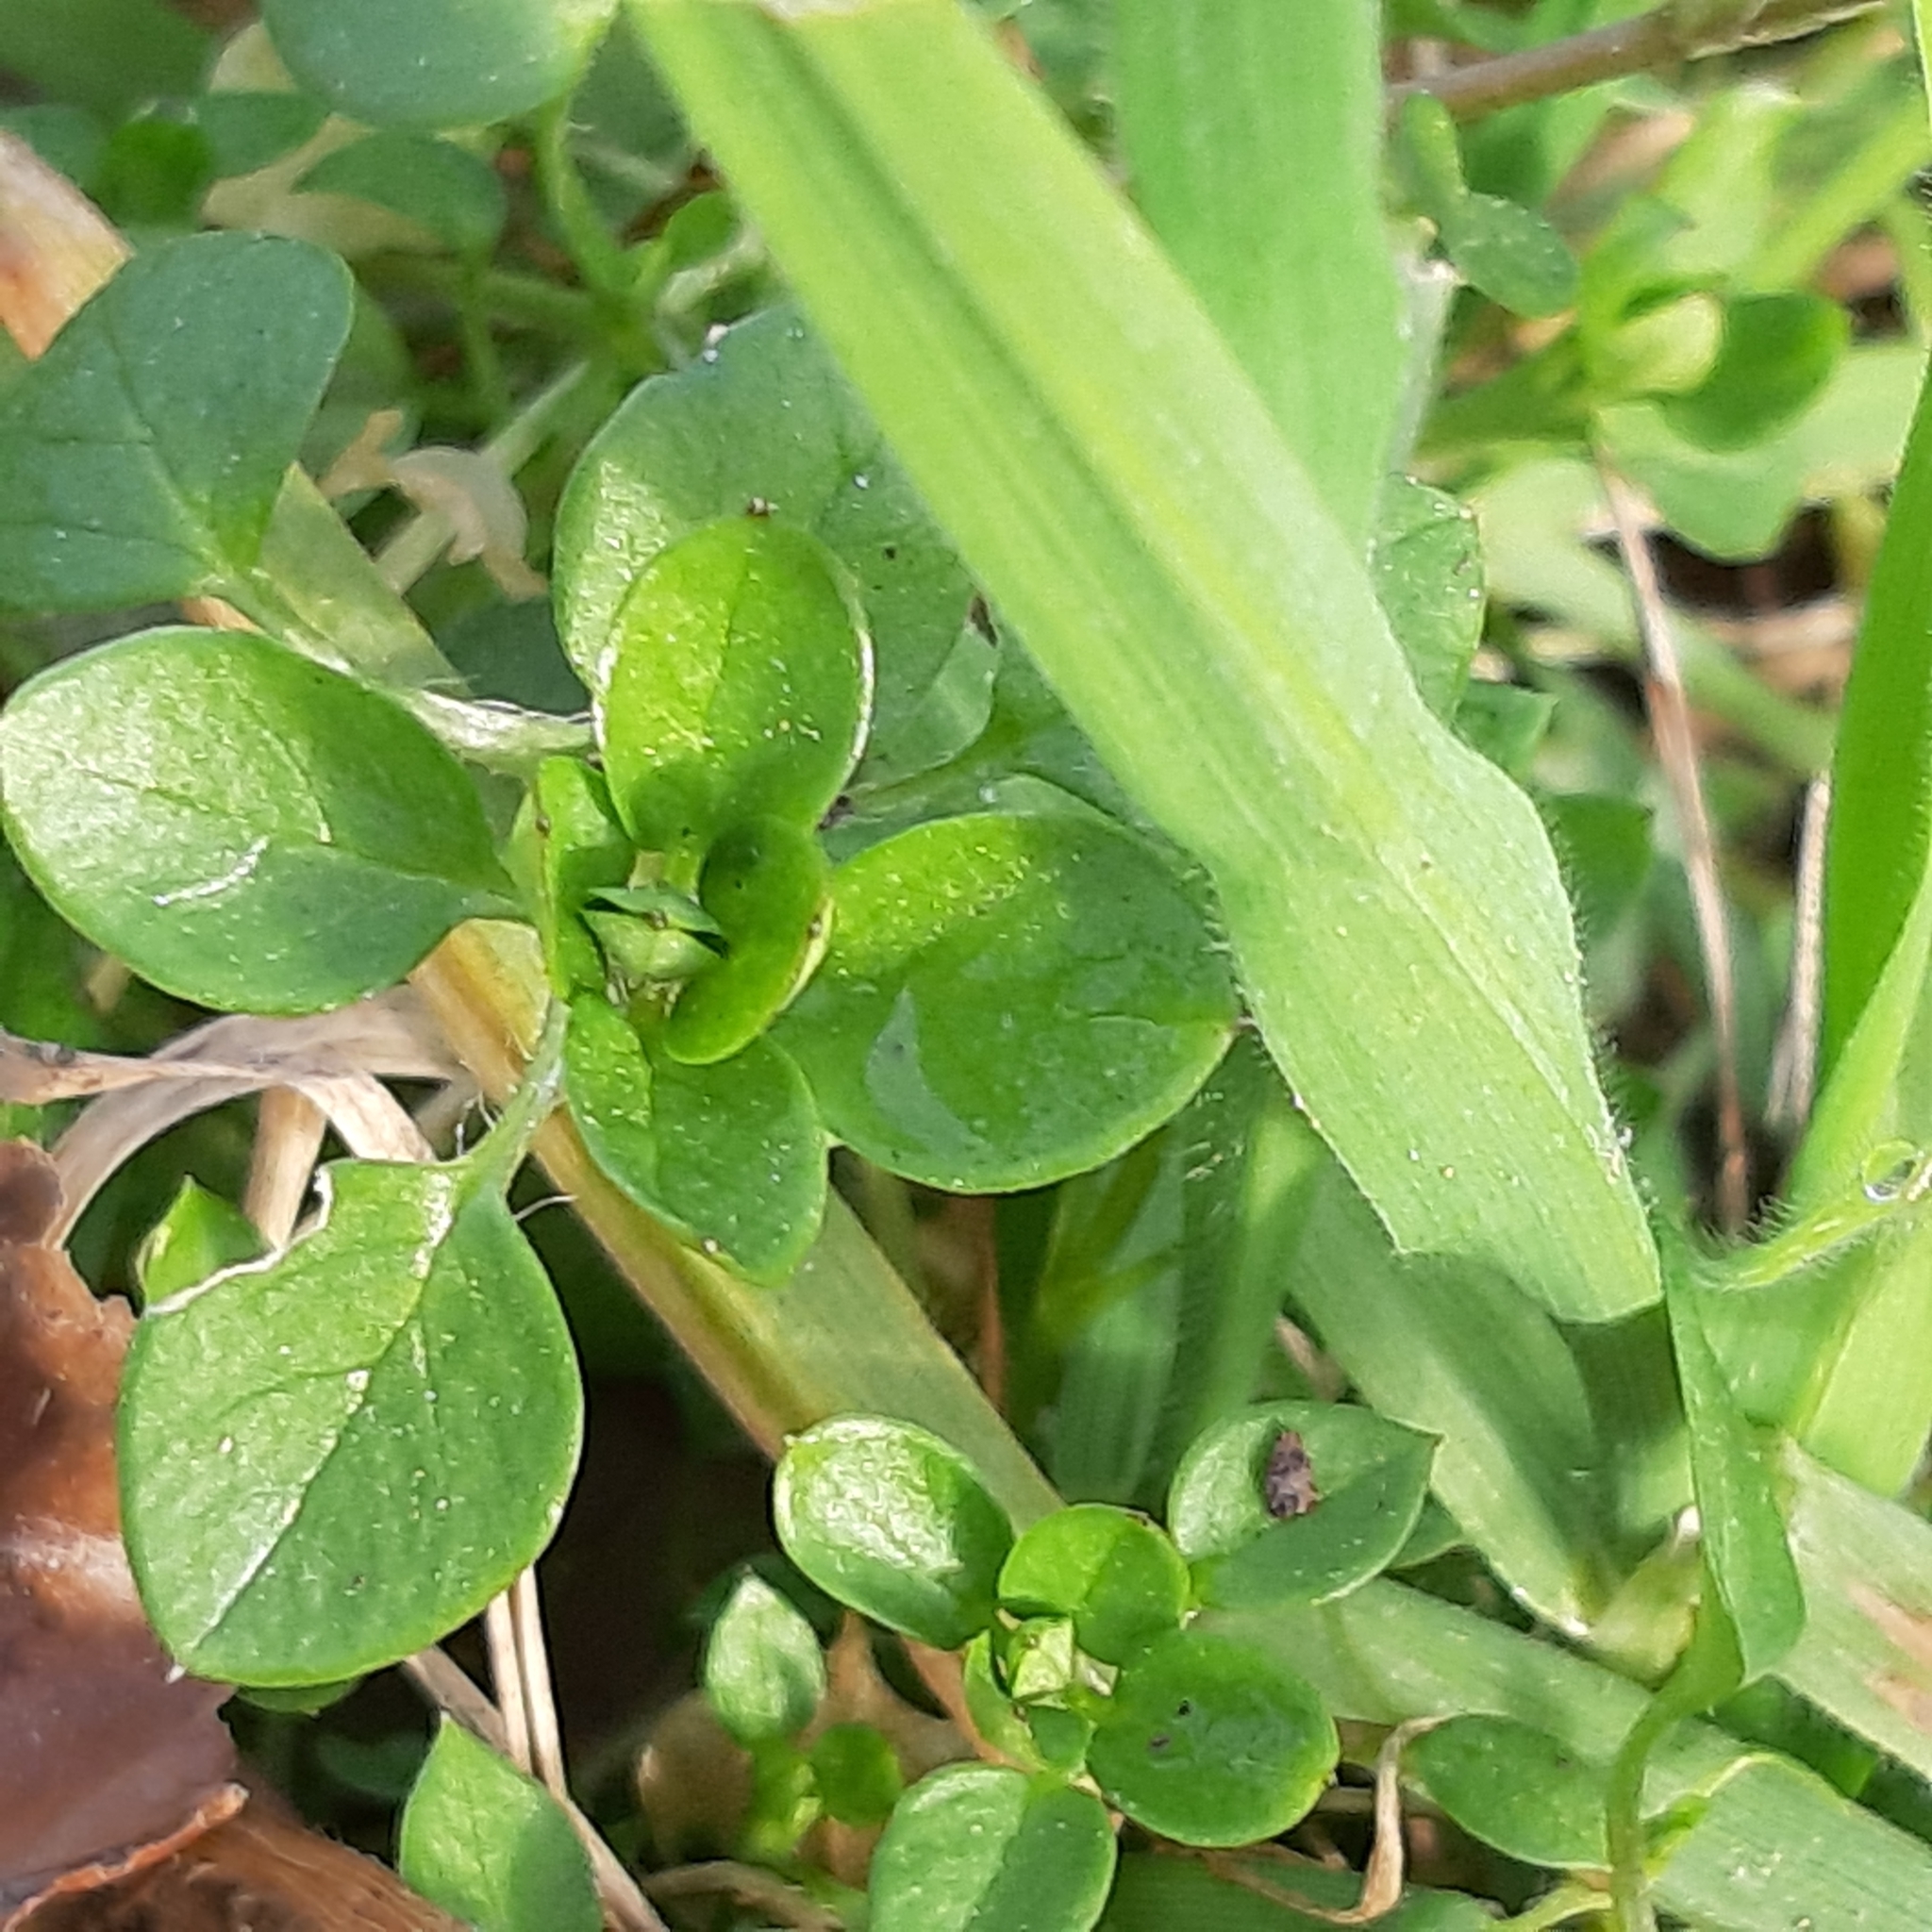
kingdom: Plantae
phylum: Tracheophyta
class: Magnoliopsida
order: Caryophyllales
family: Caryophyllaceae
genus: Stellaria
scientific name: Stellaria media
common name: Common chickweed
